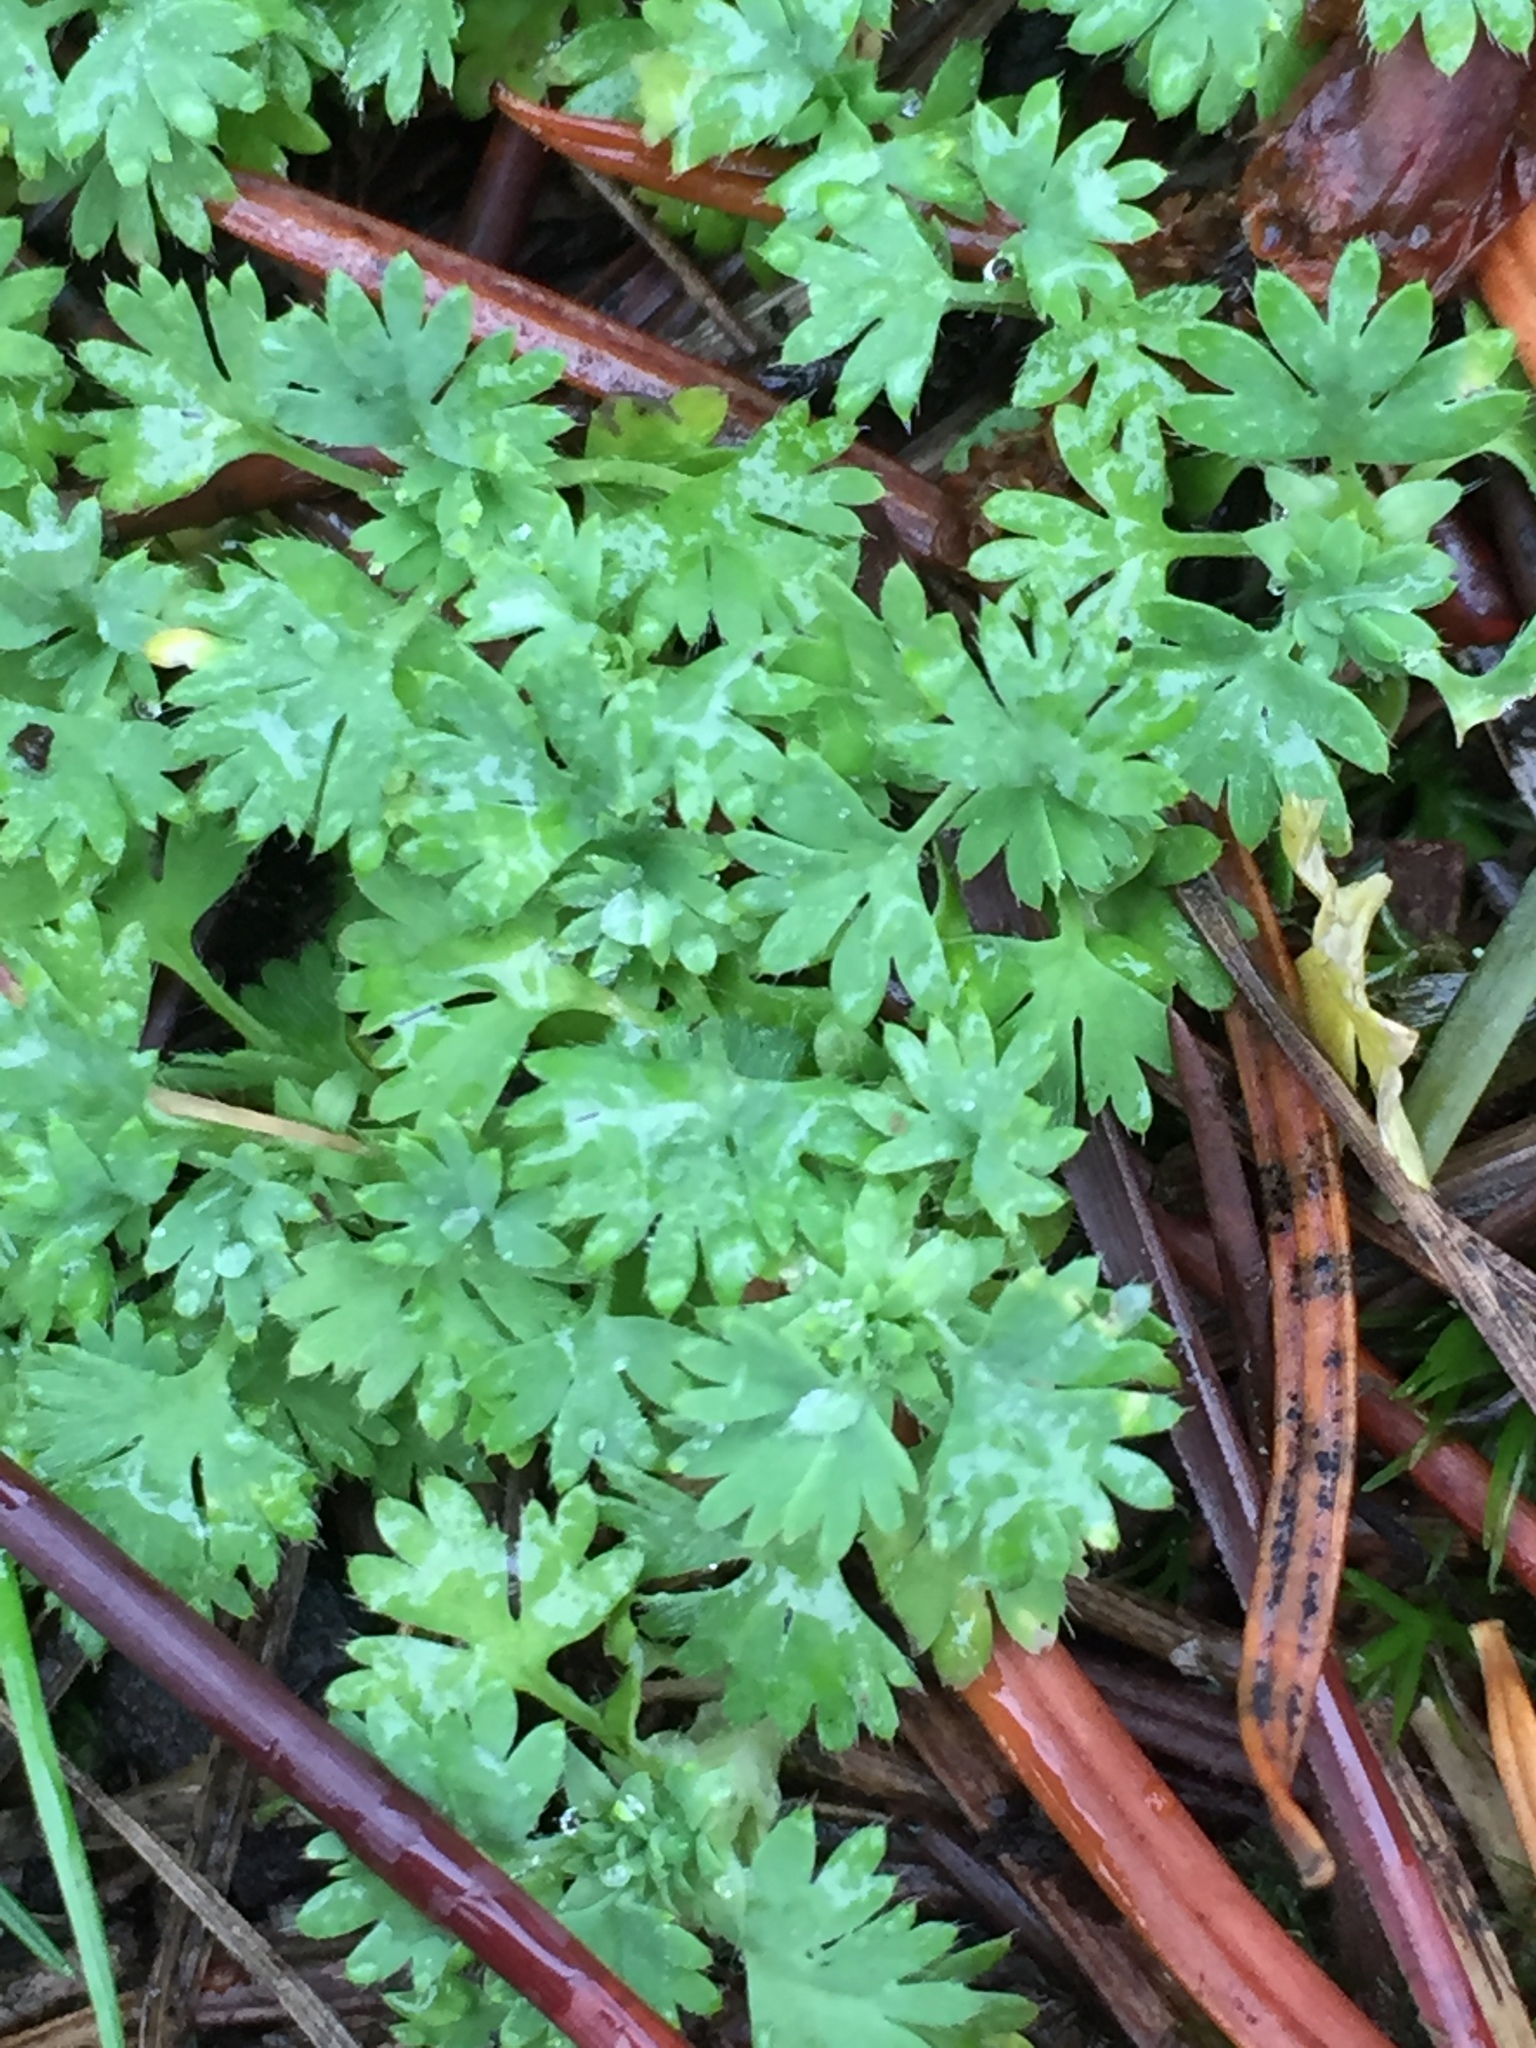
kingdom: Plantae
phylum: Tracheophyta
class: Magnoliopsida
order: Rosales
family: Rosaceae
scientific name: Rosaceae
